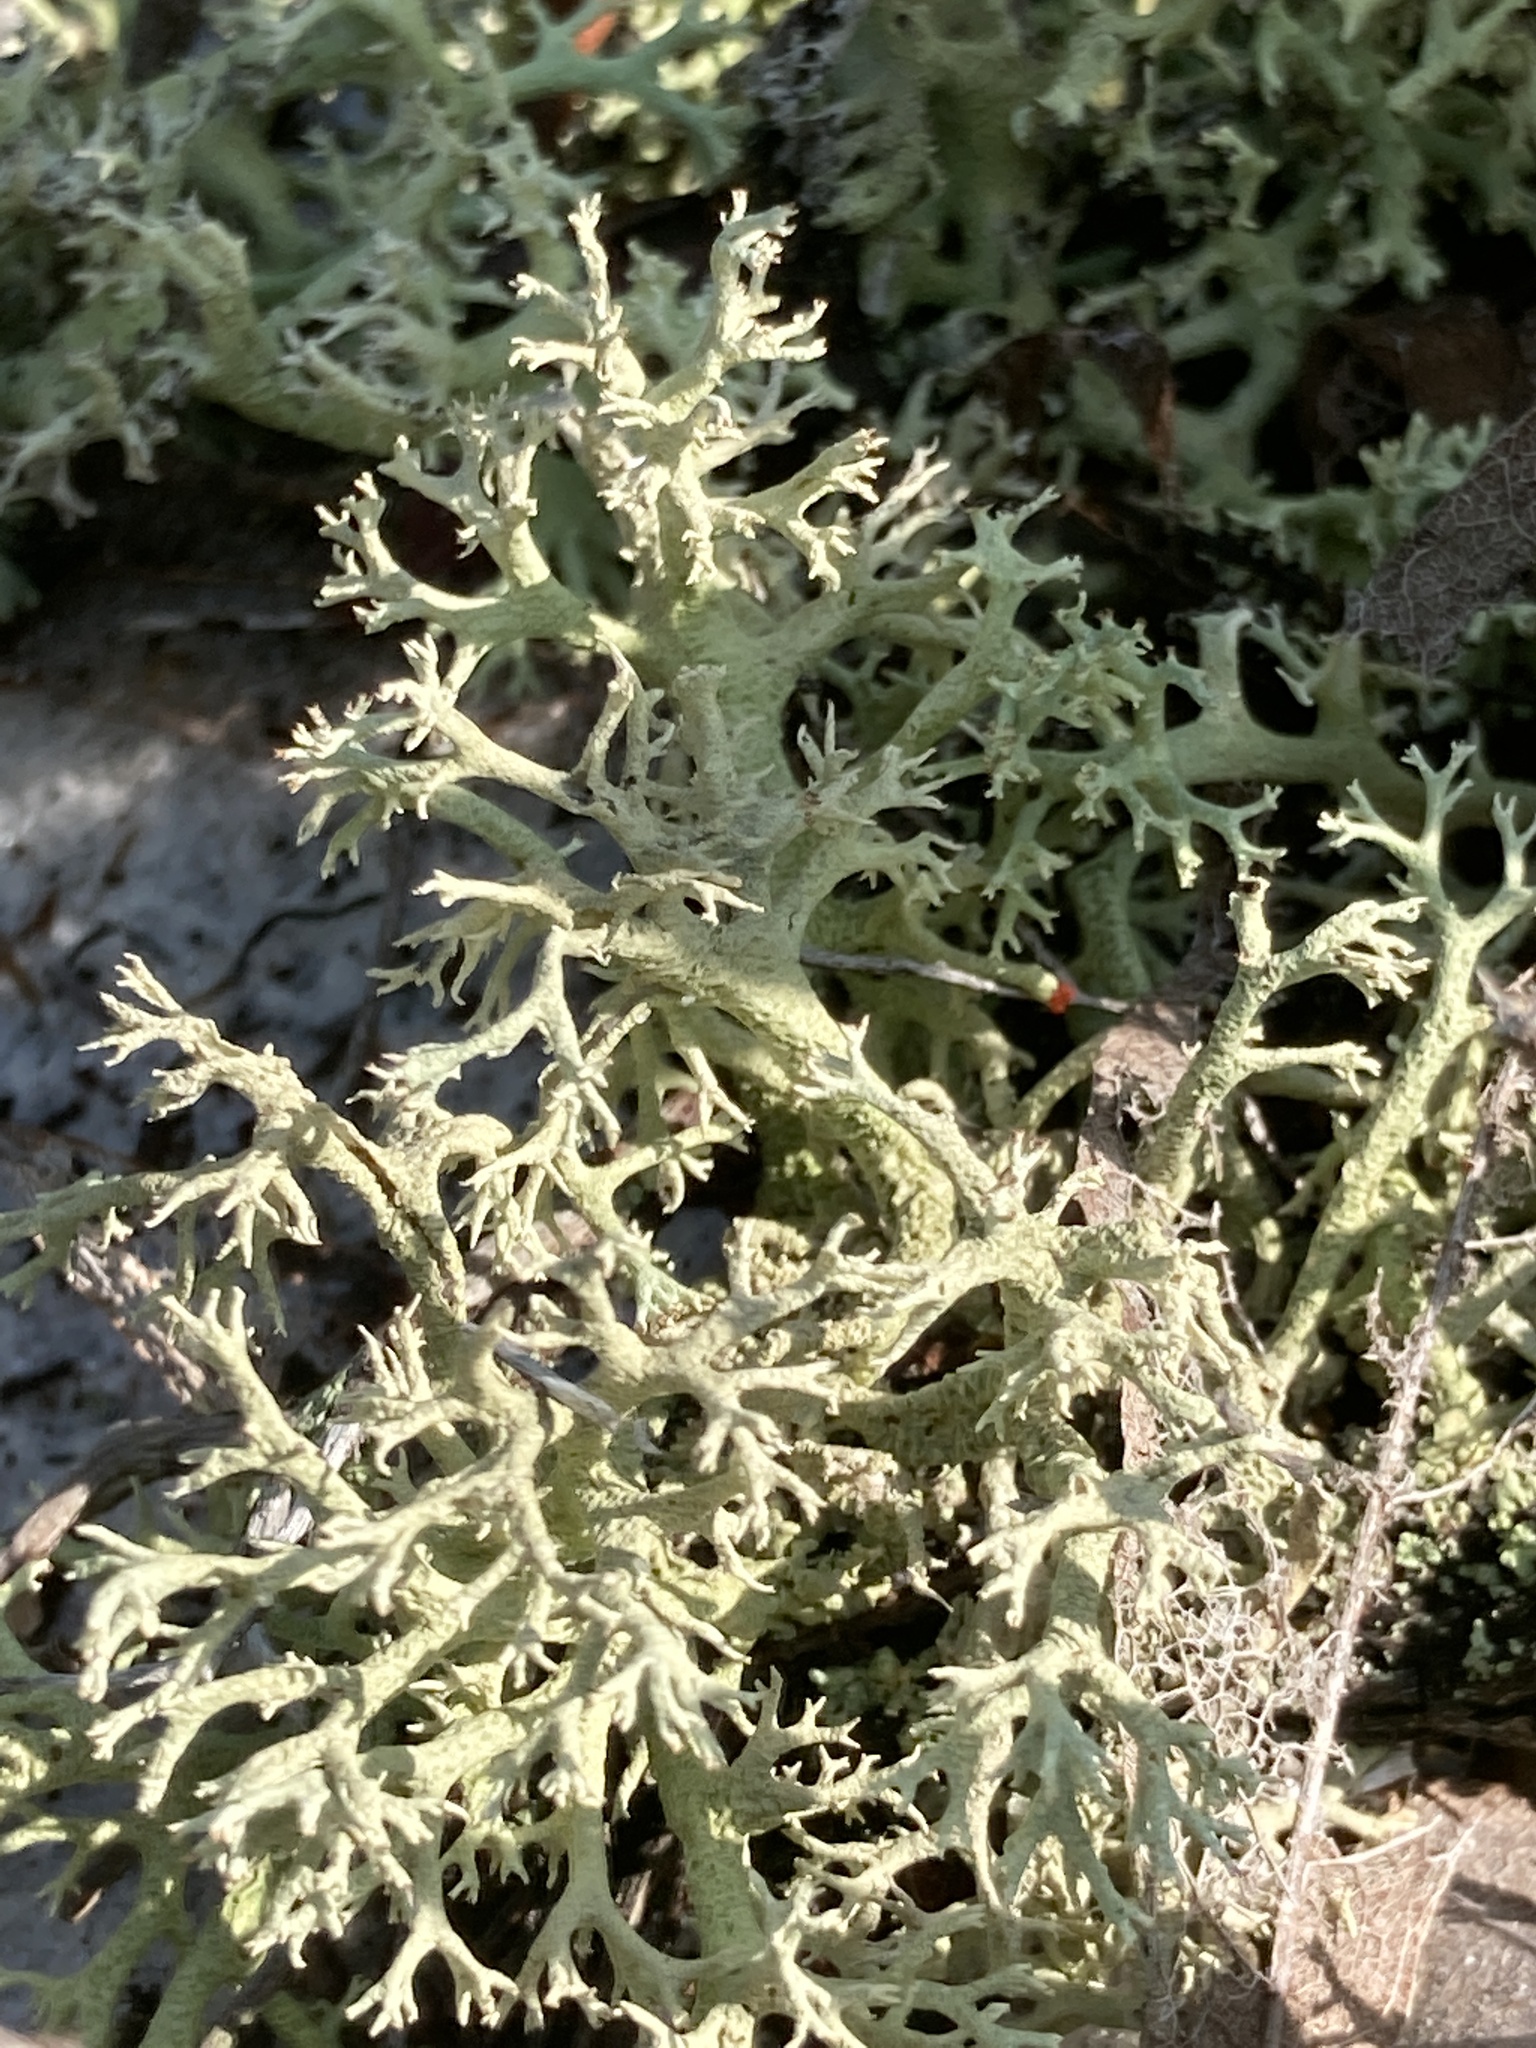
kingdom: Fungi
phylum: Ascomycota
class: Lecanoromycetes
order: Lecanorales
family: Cladoniaceae
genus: Cladonia
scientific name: Cladonia leporina
